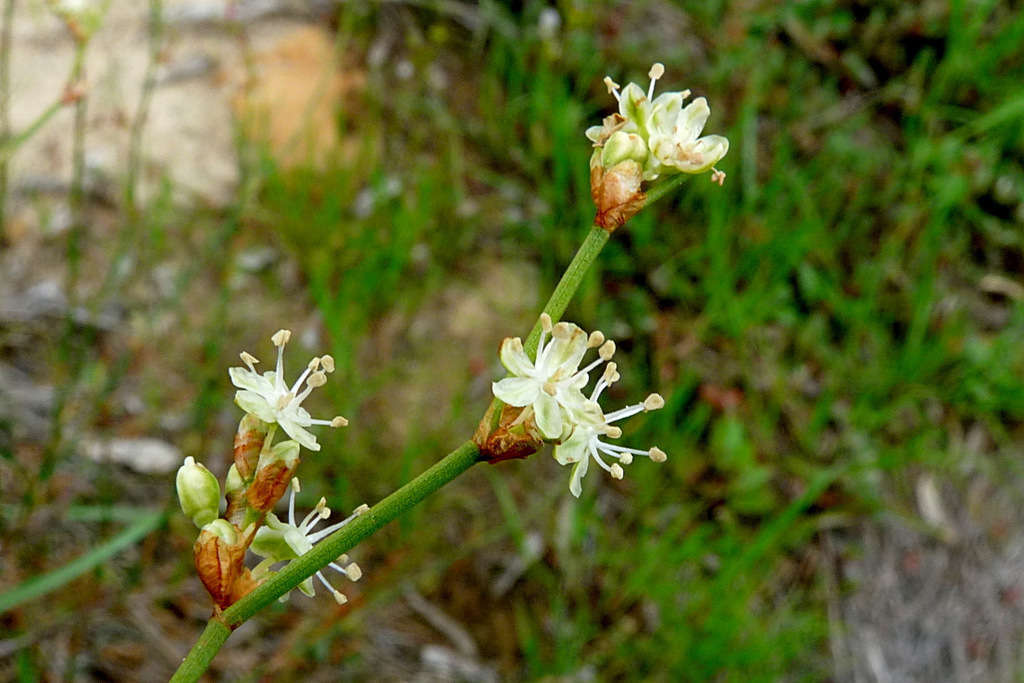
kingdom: Plantae
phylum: Tracheophyta
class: Magnoliopsida
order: Caryophyllales
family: Polygonaceae
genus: Duma
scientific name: Duma florulenta
